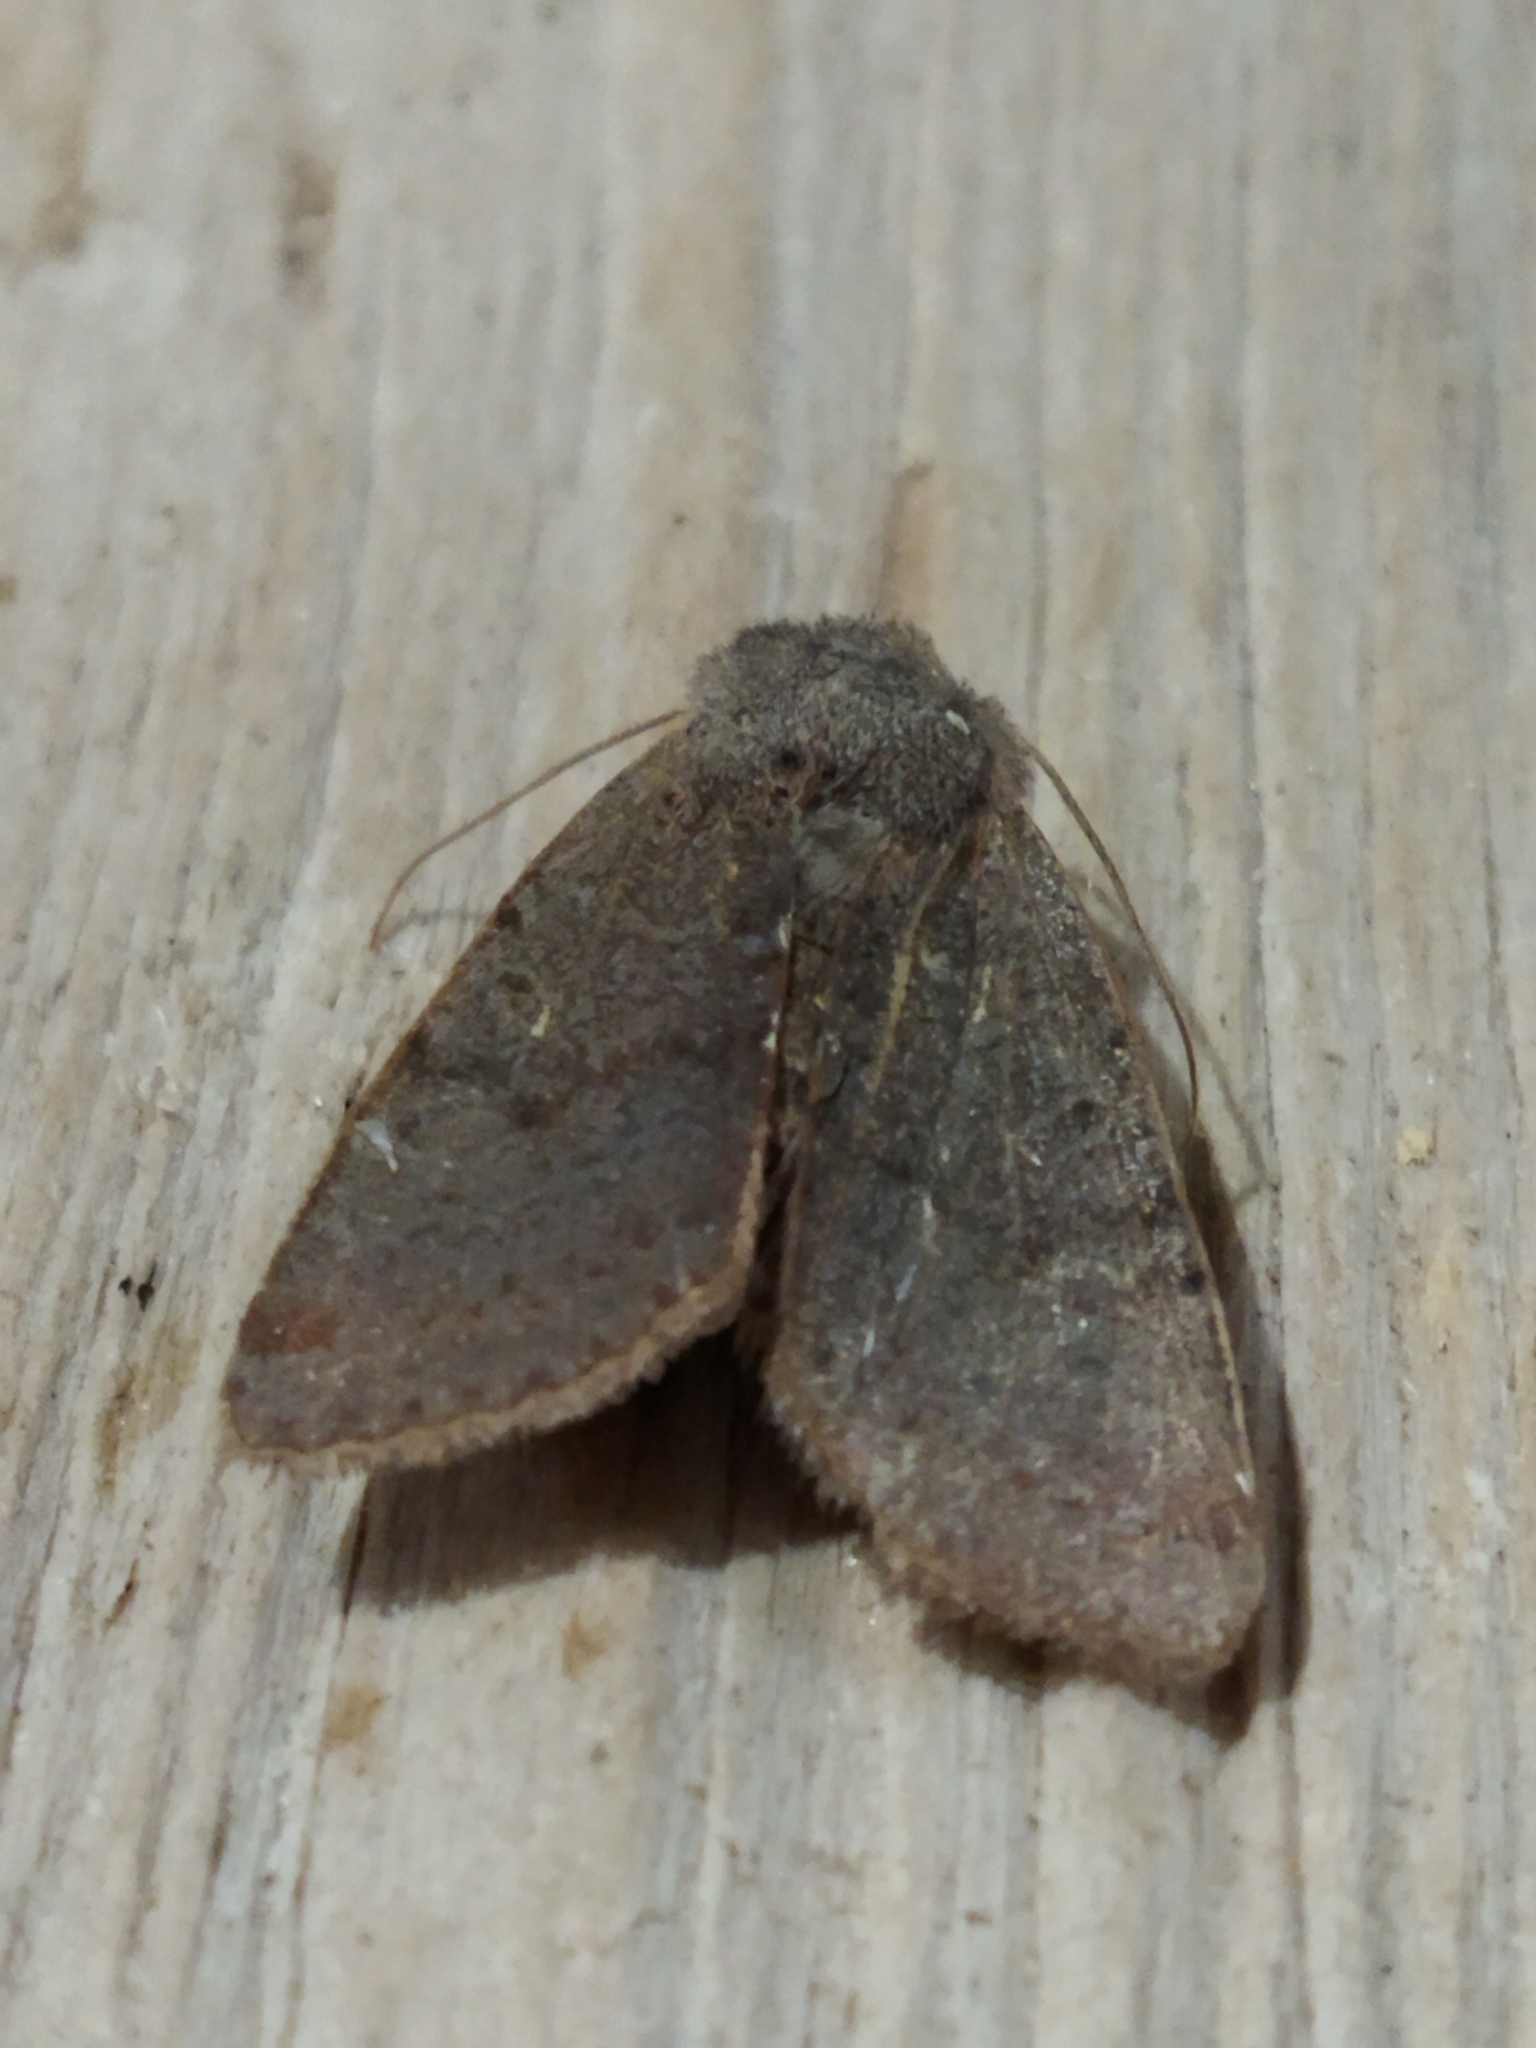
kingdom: Animalia
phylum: Arthropoda
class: Insecta
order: Lepidoptera
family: Noctuidae
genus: Agrochola
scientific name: Agrochola lychnidis
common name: Beaded chestnut
